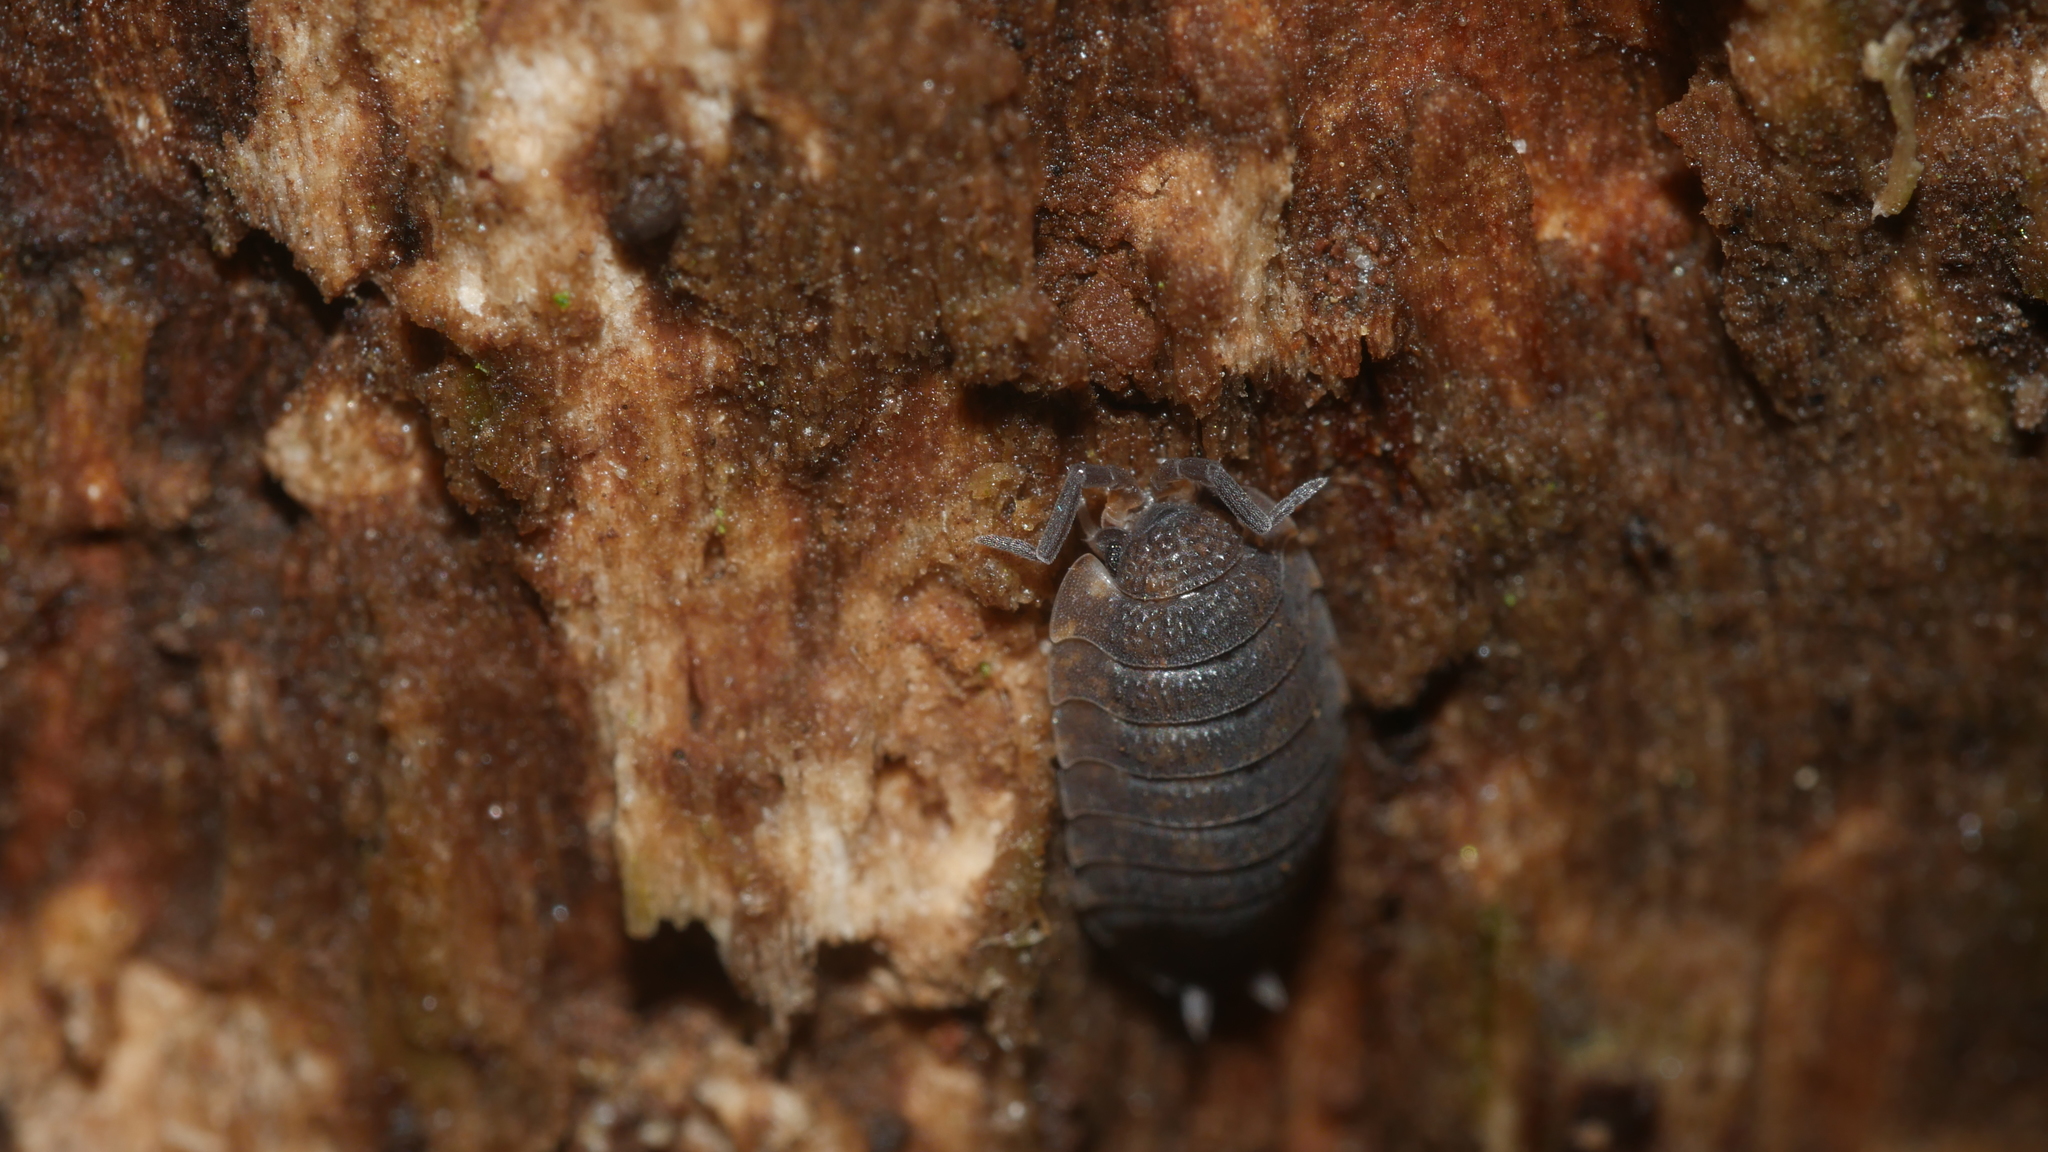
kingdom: Animalia
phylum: Arthropoda
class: Malacostraca
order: Isopoda
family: Porcellionidae
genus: Porcellio
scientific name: Porcellio scaber
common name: Common rough woodlouse
